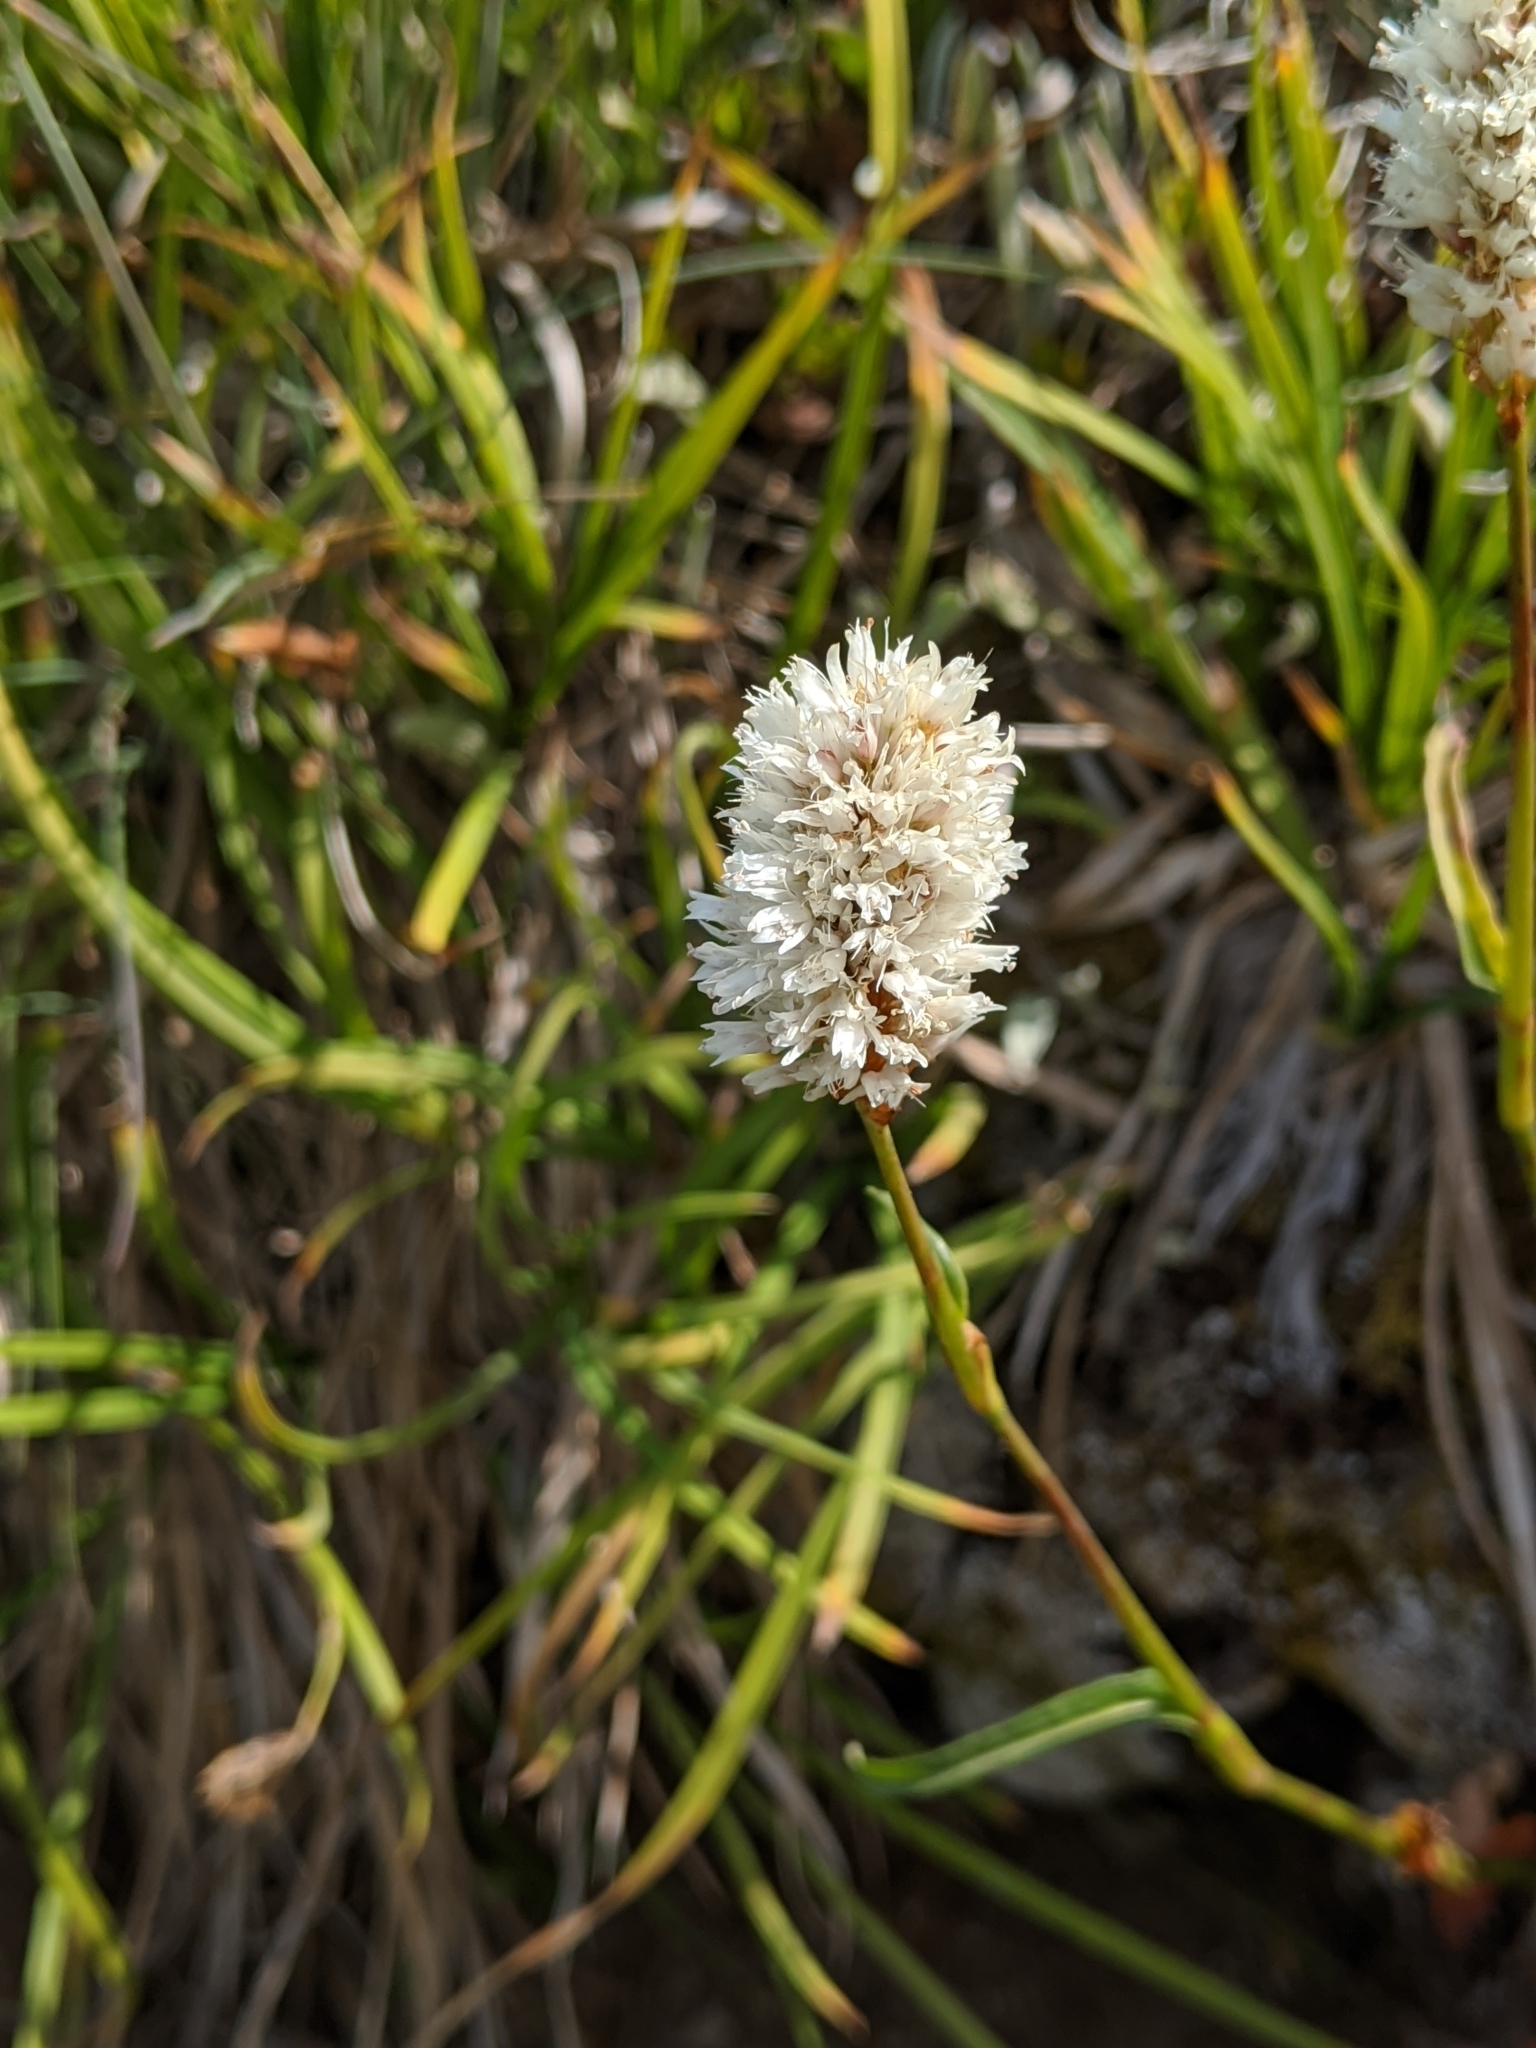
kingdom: Plantae
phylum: Tracheophyta
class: Magnoliopsida
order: Caryophyllales
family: Polygonaceae
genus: Bistorta
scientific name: Bistorta bistortoides
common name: American bistort
